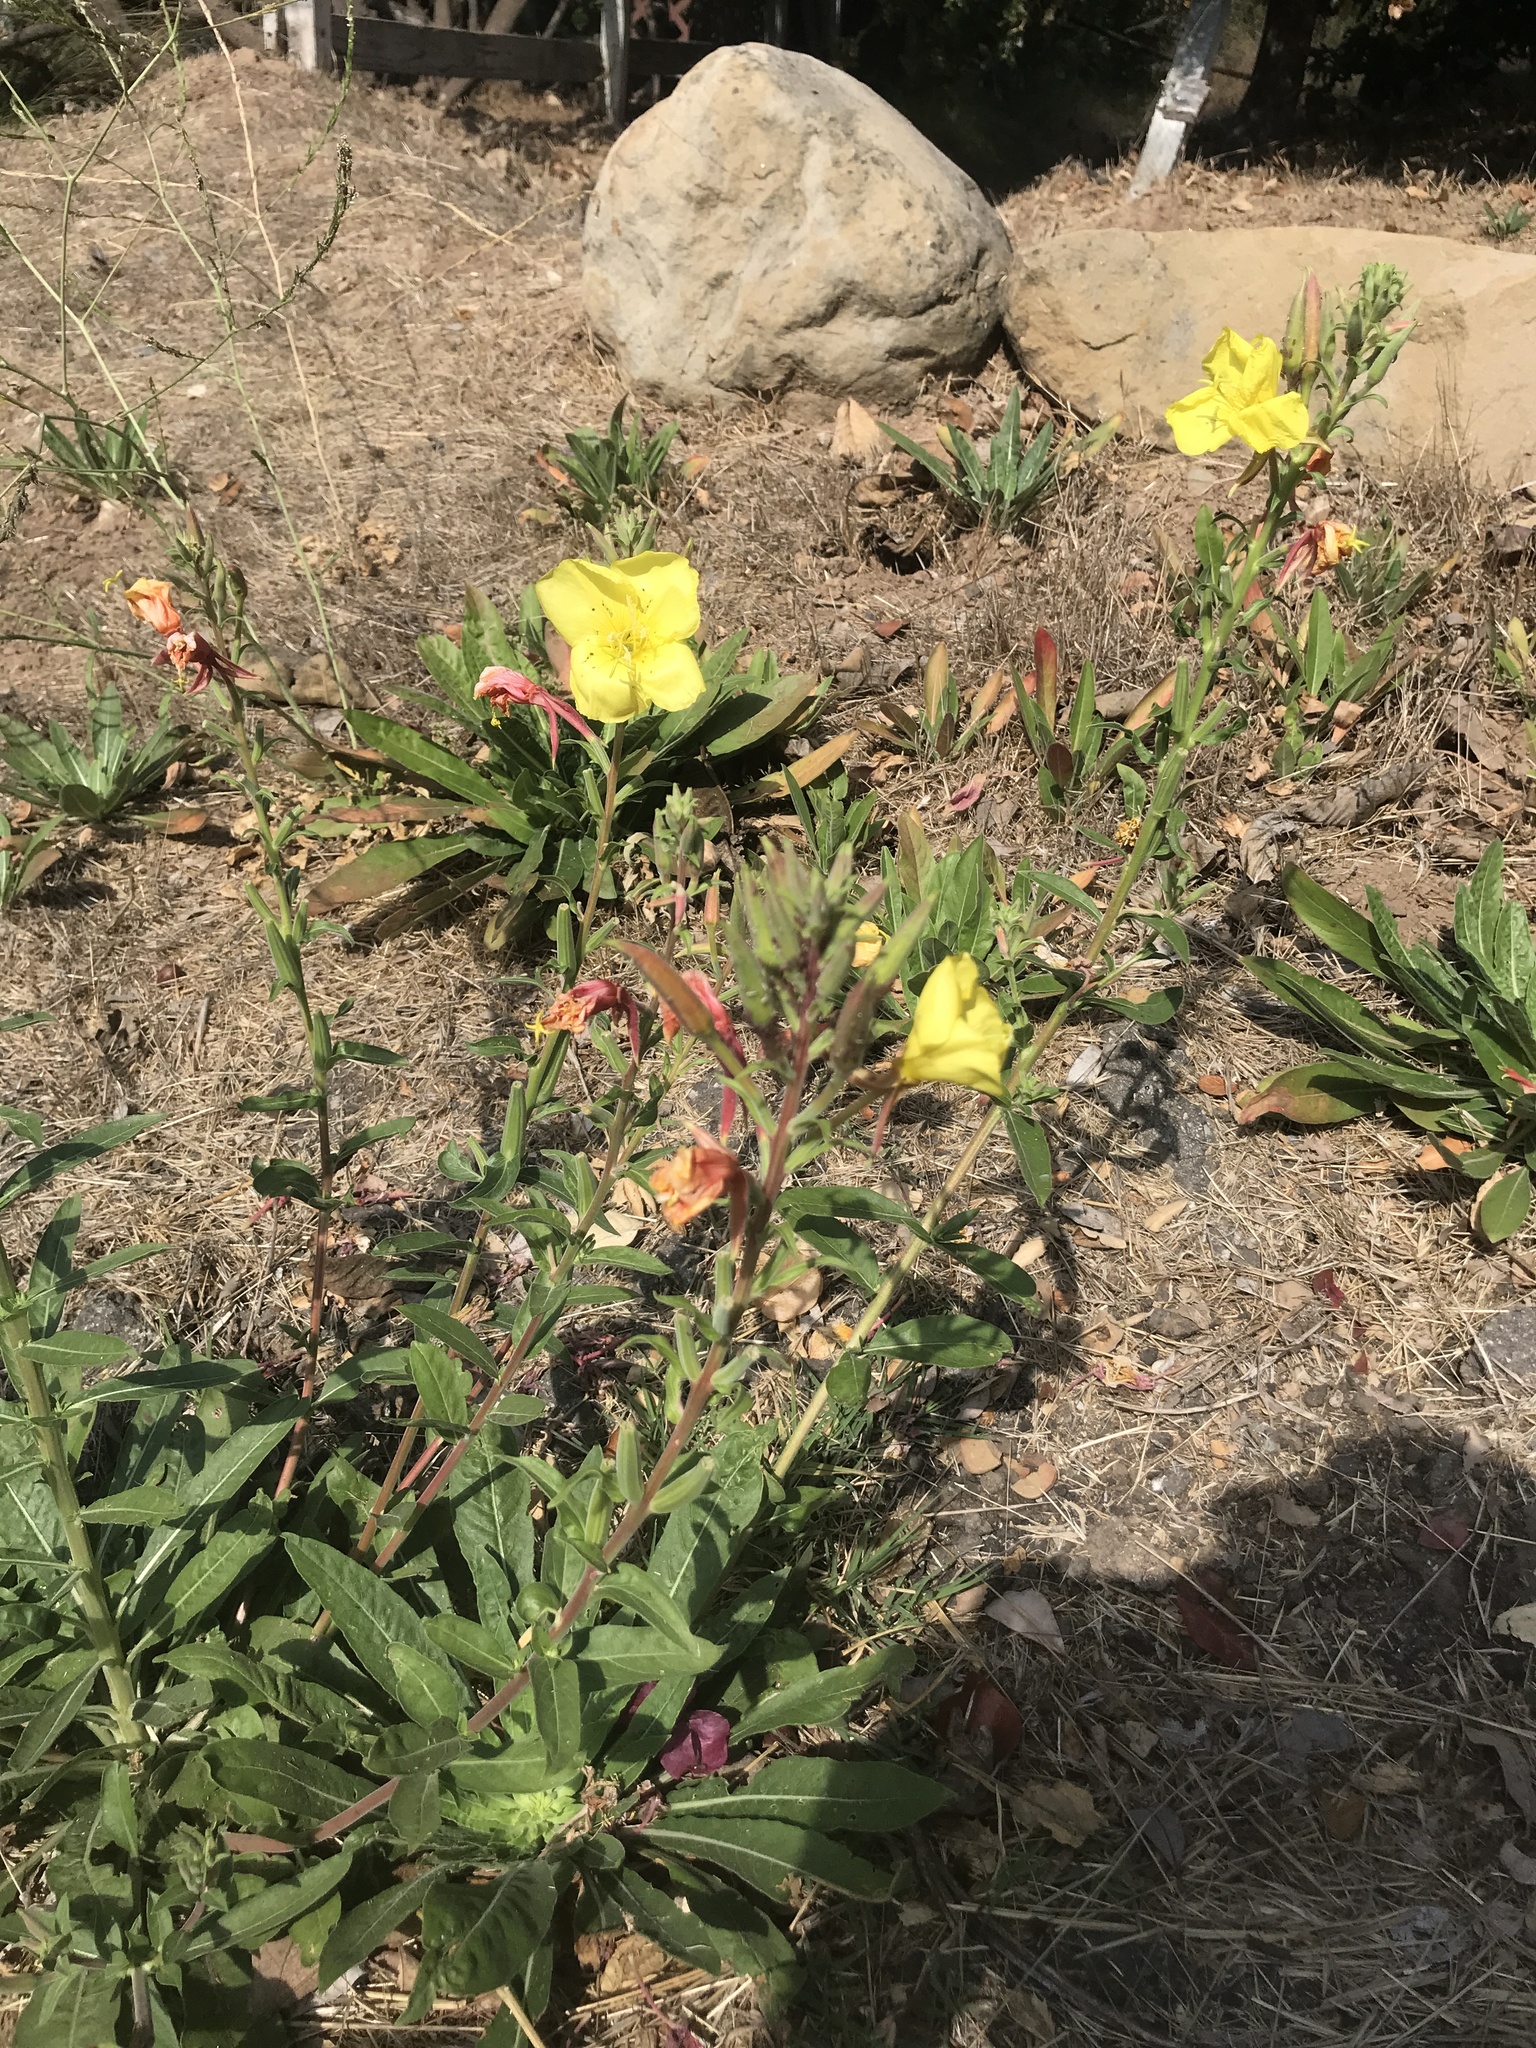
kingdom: Plantae
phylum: Tracheophyta
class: Magnoliopsida
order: Myrtales
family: Onagraceae
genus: Oenothera
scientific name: Oenothera elata
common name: Hooker's evening-primrose
